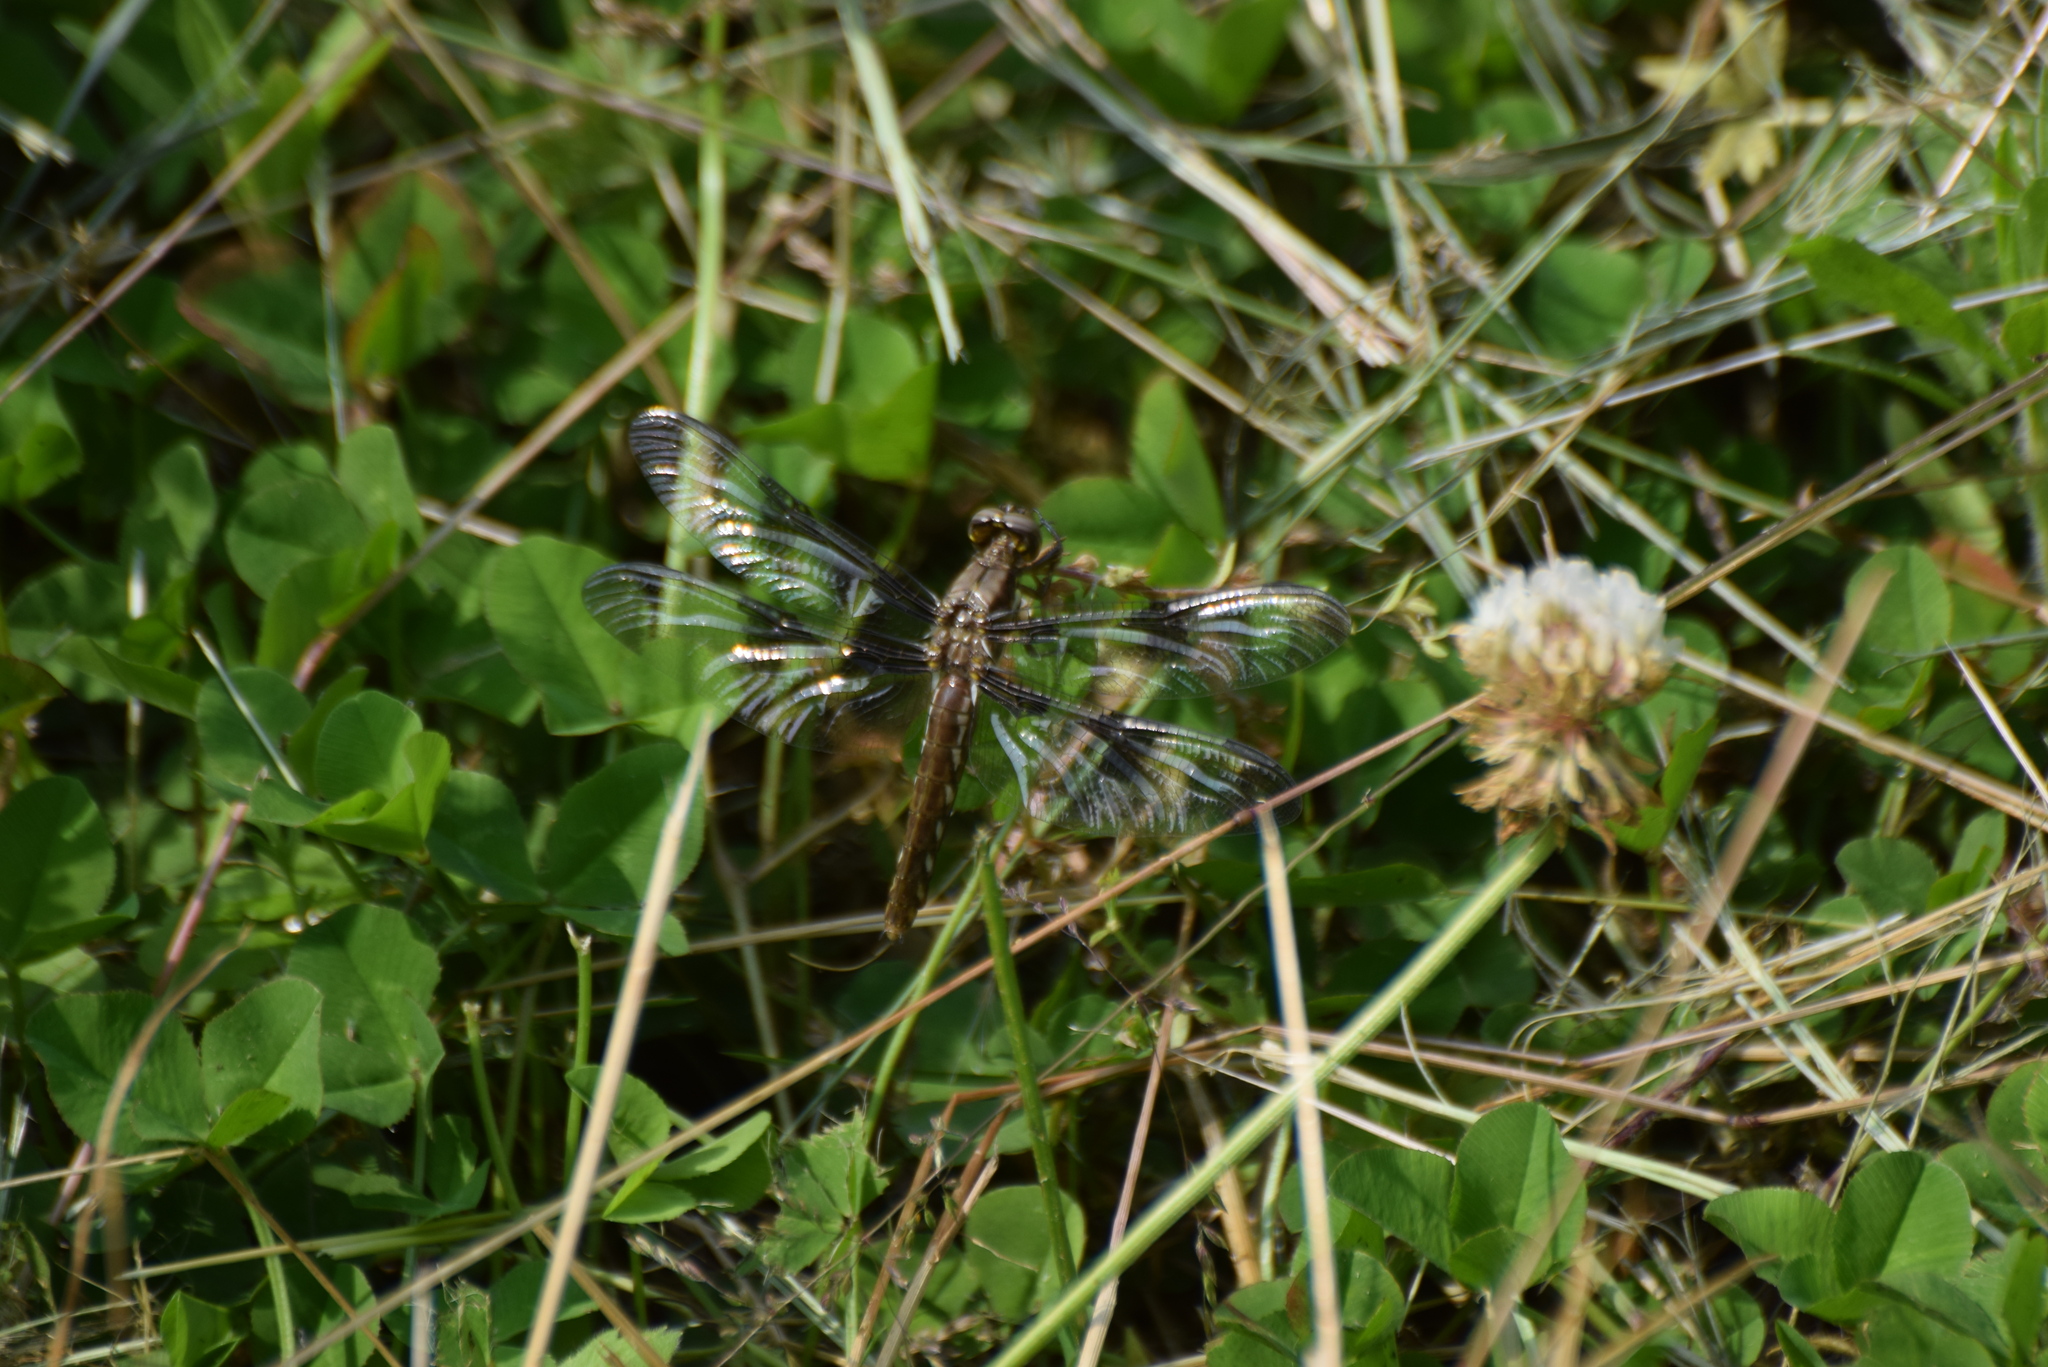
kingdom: Animalia
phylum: Arthropoda
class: Insecta
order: Odonata
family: Libellulidae
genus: Plathemis
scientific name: Plathemis lydia
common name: Common whitetail
